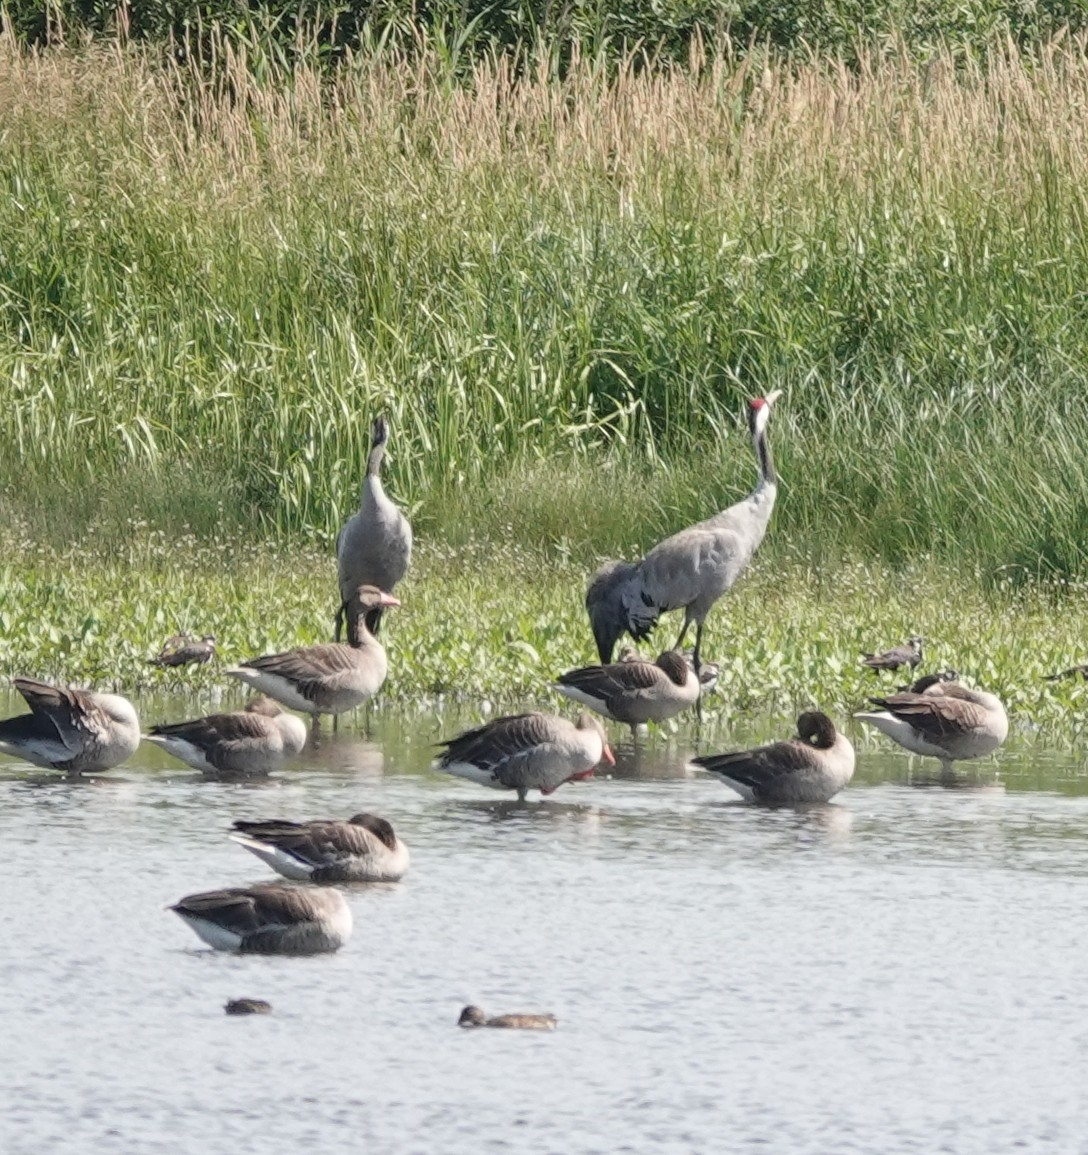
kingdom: Animalia
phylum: Chordata
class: Aves
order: Gruiformes
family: Gruidae
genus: Grus
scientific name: Grus grus
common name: Common crane
